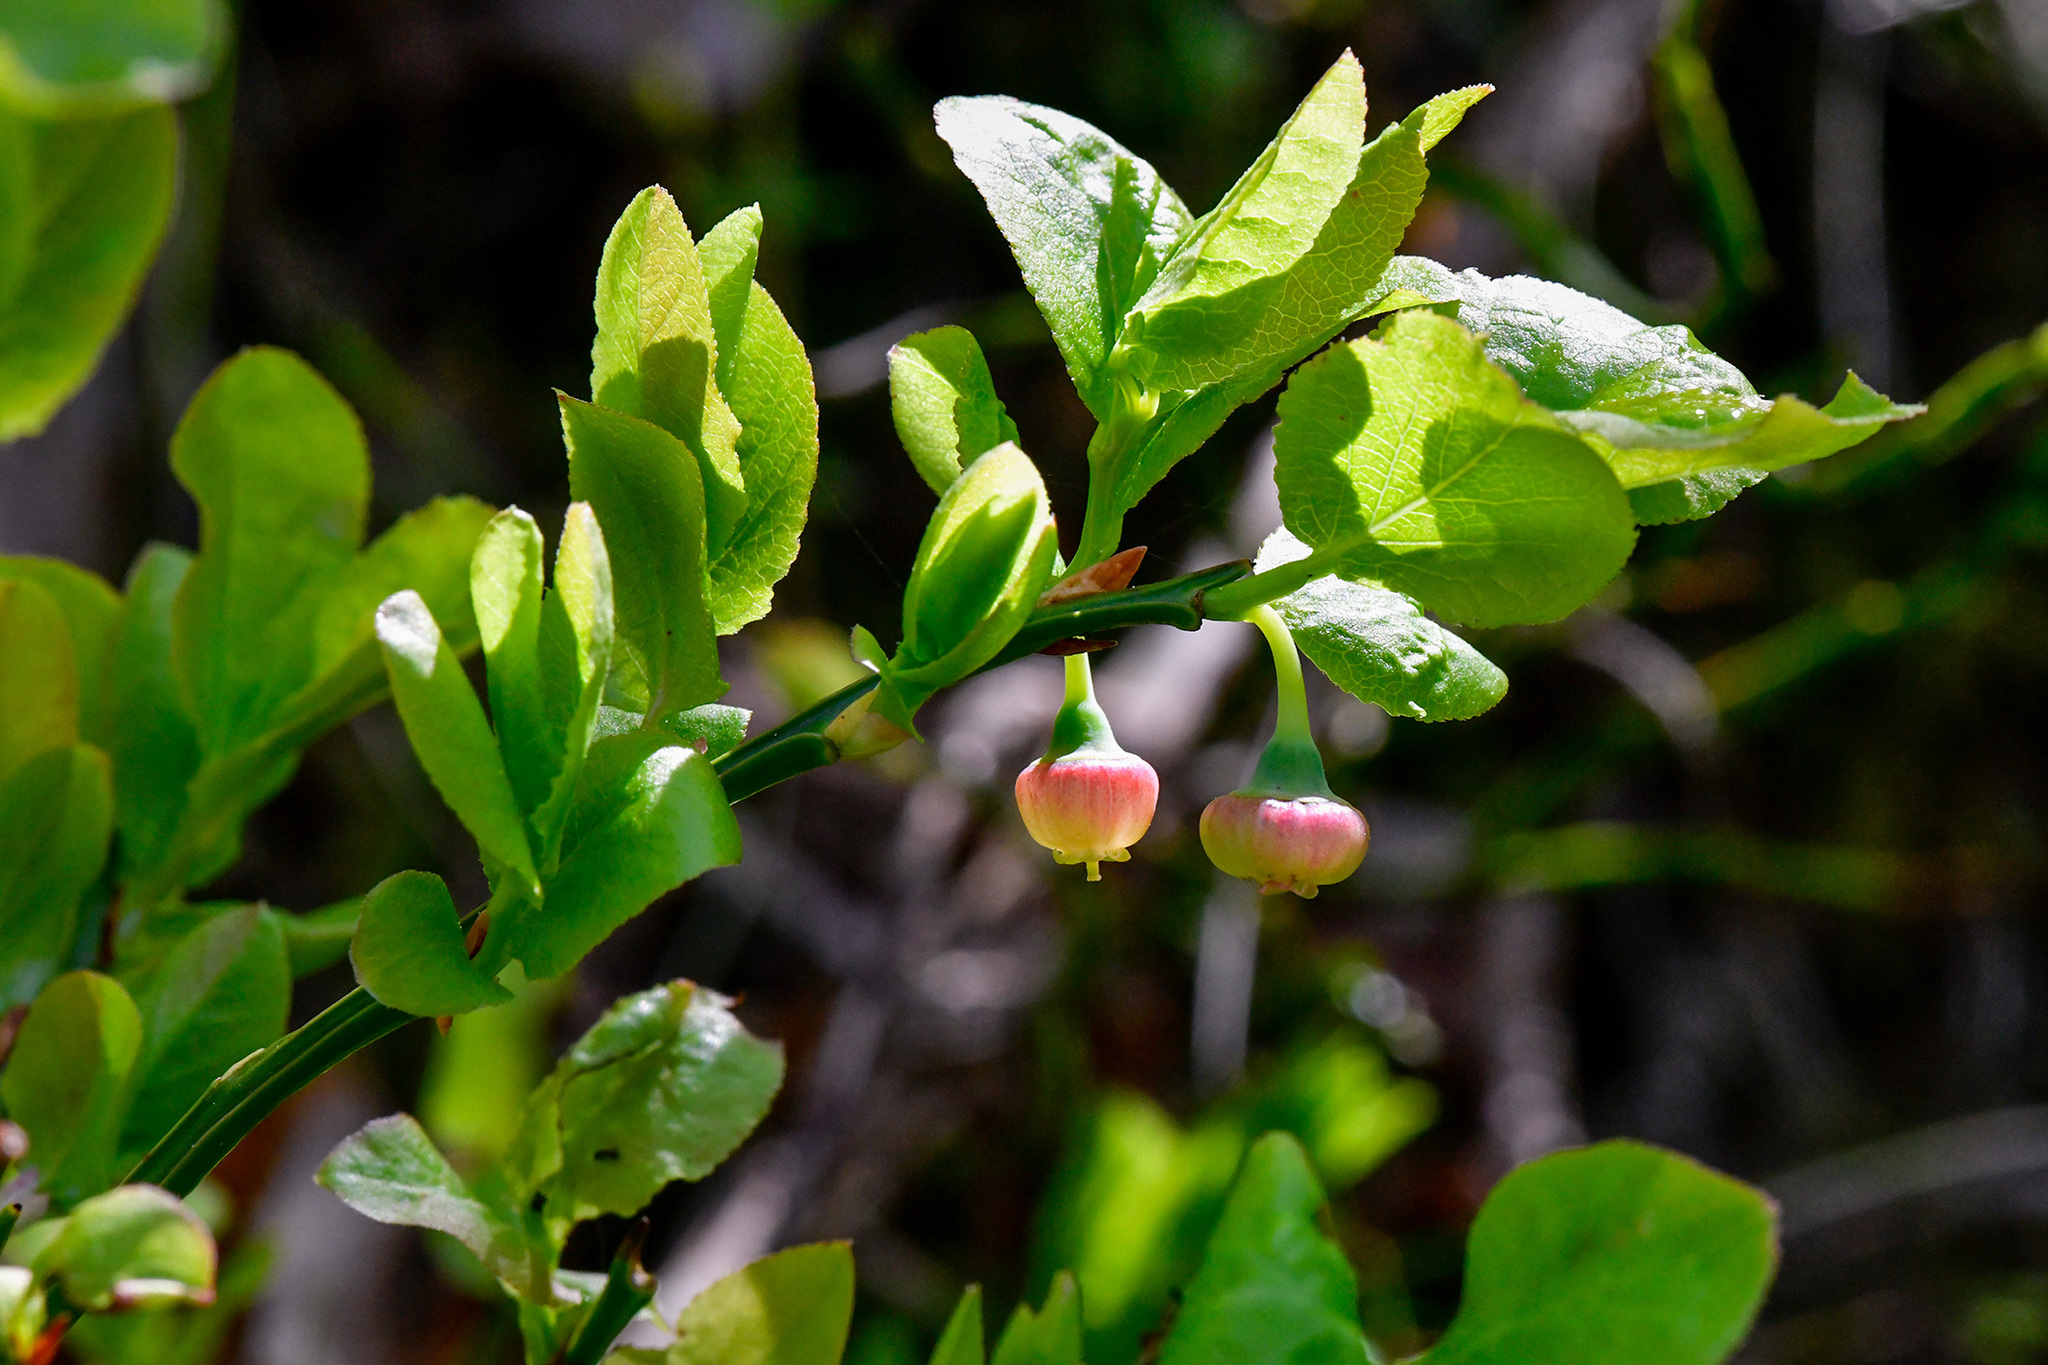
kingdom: Plantae
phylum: Tracheophyta
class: Magnoliopsida
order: Ericales
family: Ericaceae
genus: Vaccinium
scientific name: Vaccinium myrtillus
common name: Bilberry
